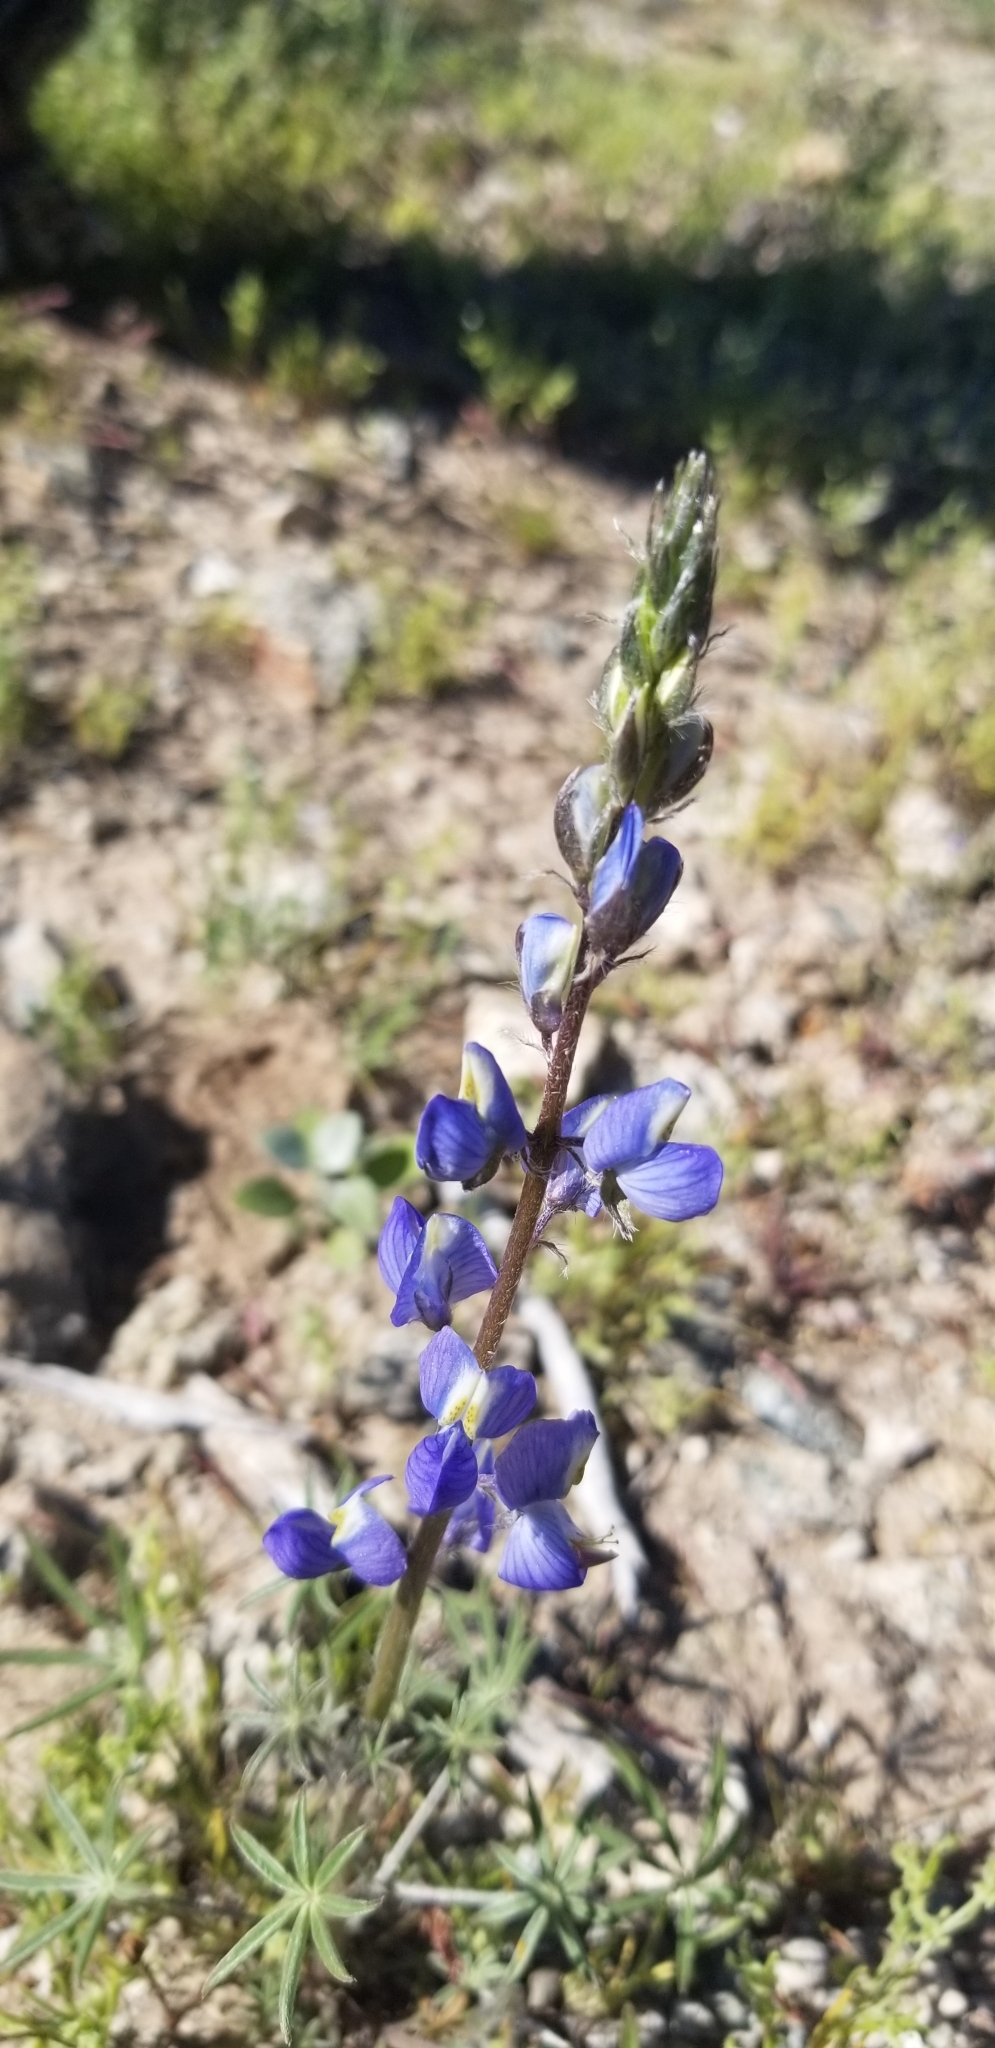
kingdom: Plantae
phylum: Tracheophyta
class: Magnoliopsida
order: Fabales
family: Fabaceae
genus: Lupinus
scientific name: Lupinus sparsiflorus
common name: Coulter's lupine
